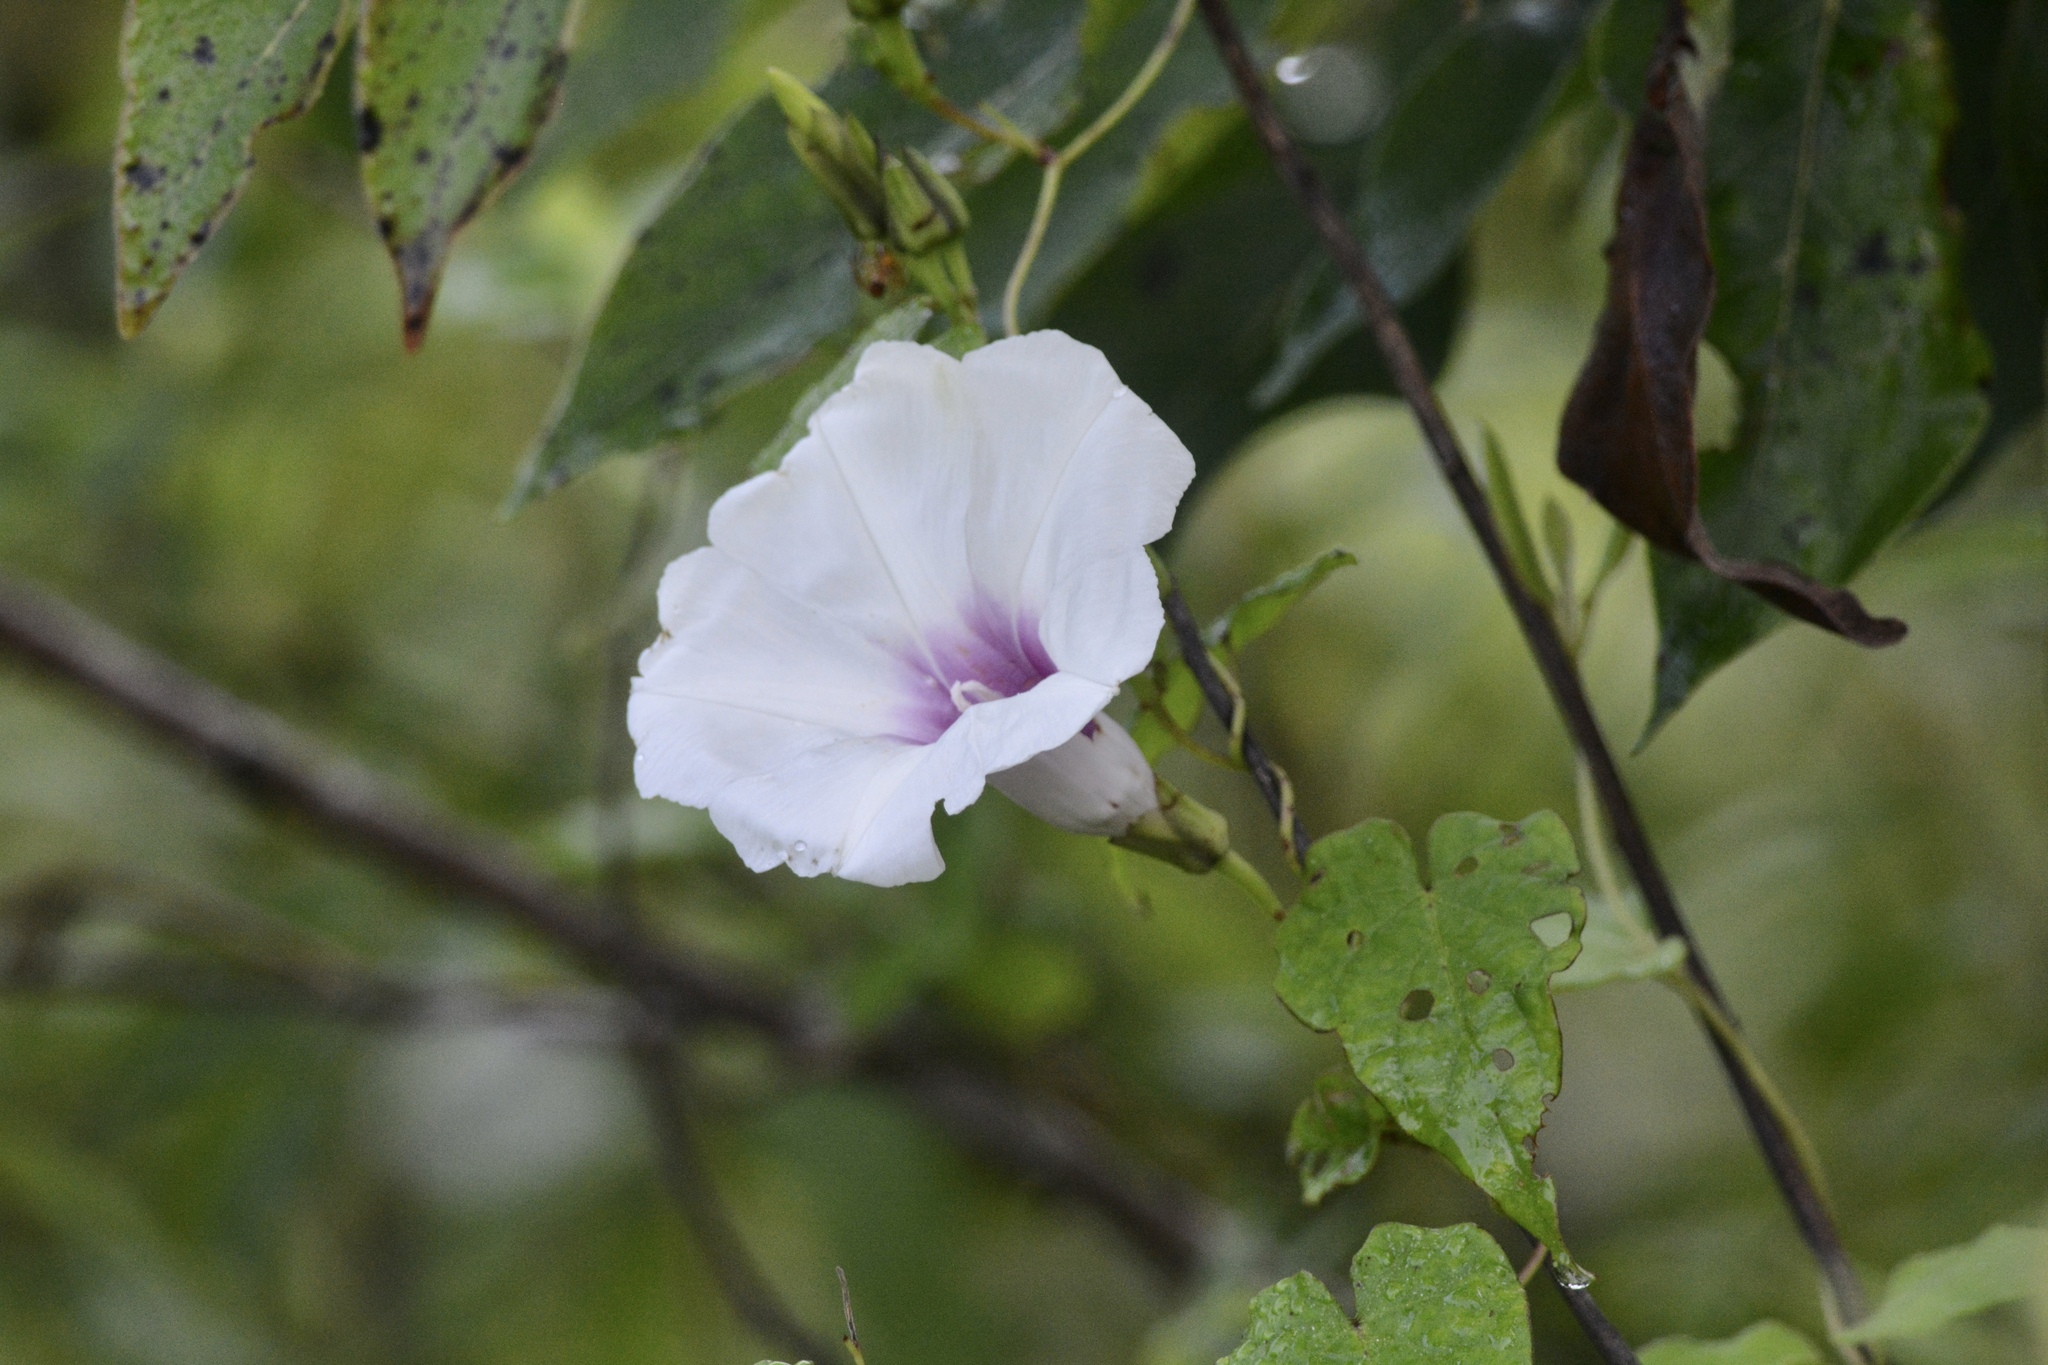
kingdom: Plantae
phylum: Tracheophyta
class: Magnoliopsida
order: Solanales
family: Convolvulaceae
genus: Ipomoea
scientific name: Ipomoea pandurata
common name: Man-of-the-earth
